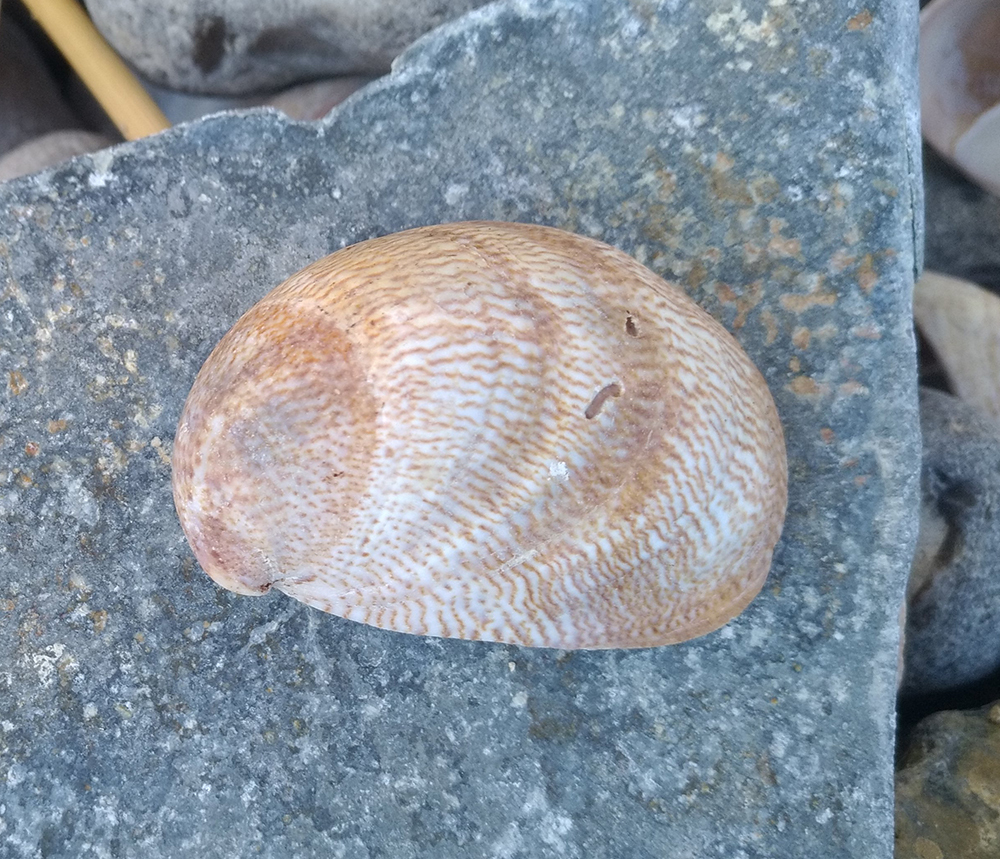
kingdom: Animalia
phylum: Mollusca
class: Gastropoda
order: Littorinimorpha
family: Calyptraeidae
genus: Crepidula
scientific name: Crepidula fornicata
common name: Slipper limpet
